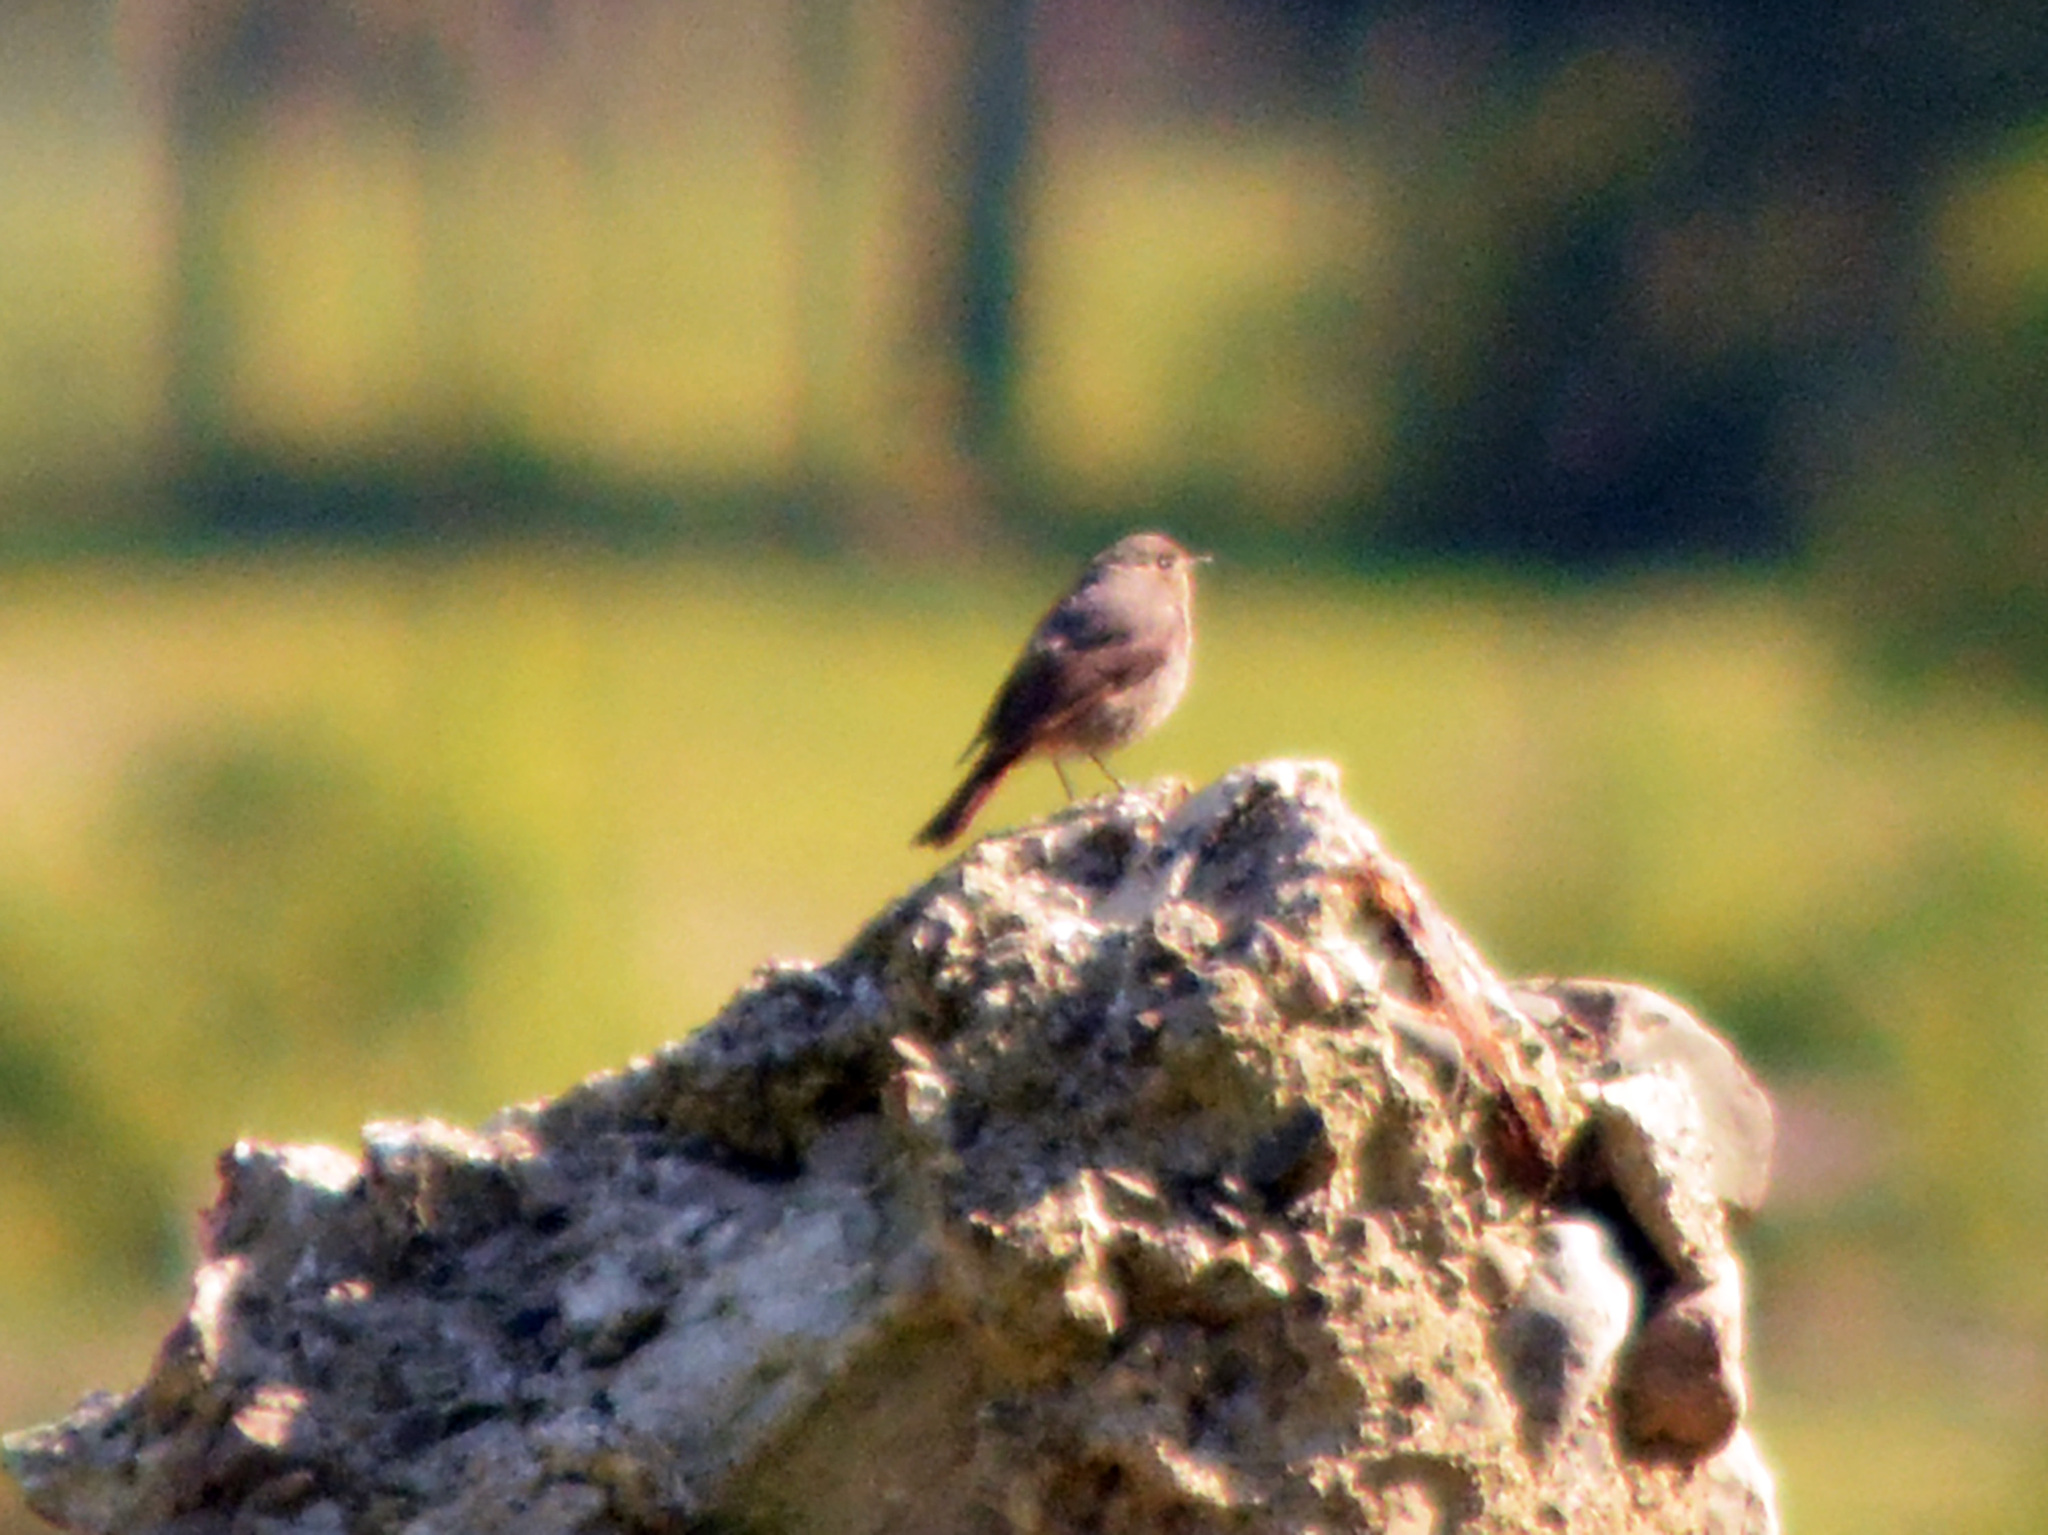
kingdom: Animalia
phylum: Chordata
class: Aves
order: Passeriformes
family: Muscicapidae
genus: Phoenicurus
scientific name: Phoenicurus ochruros
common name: Black redstart
